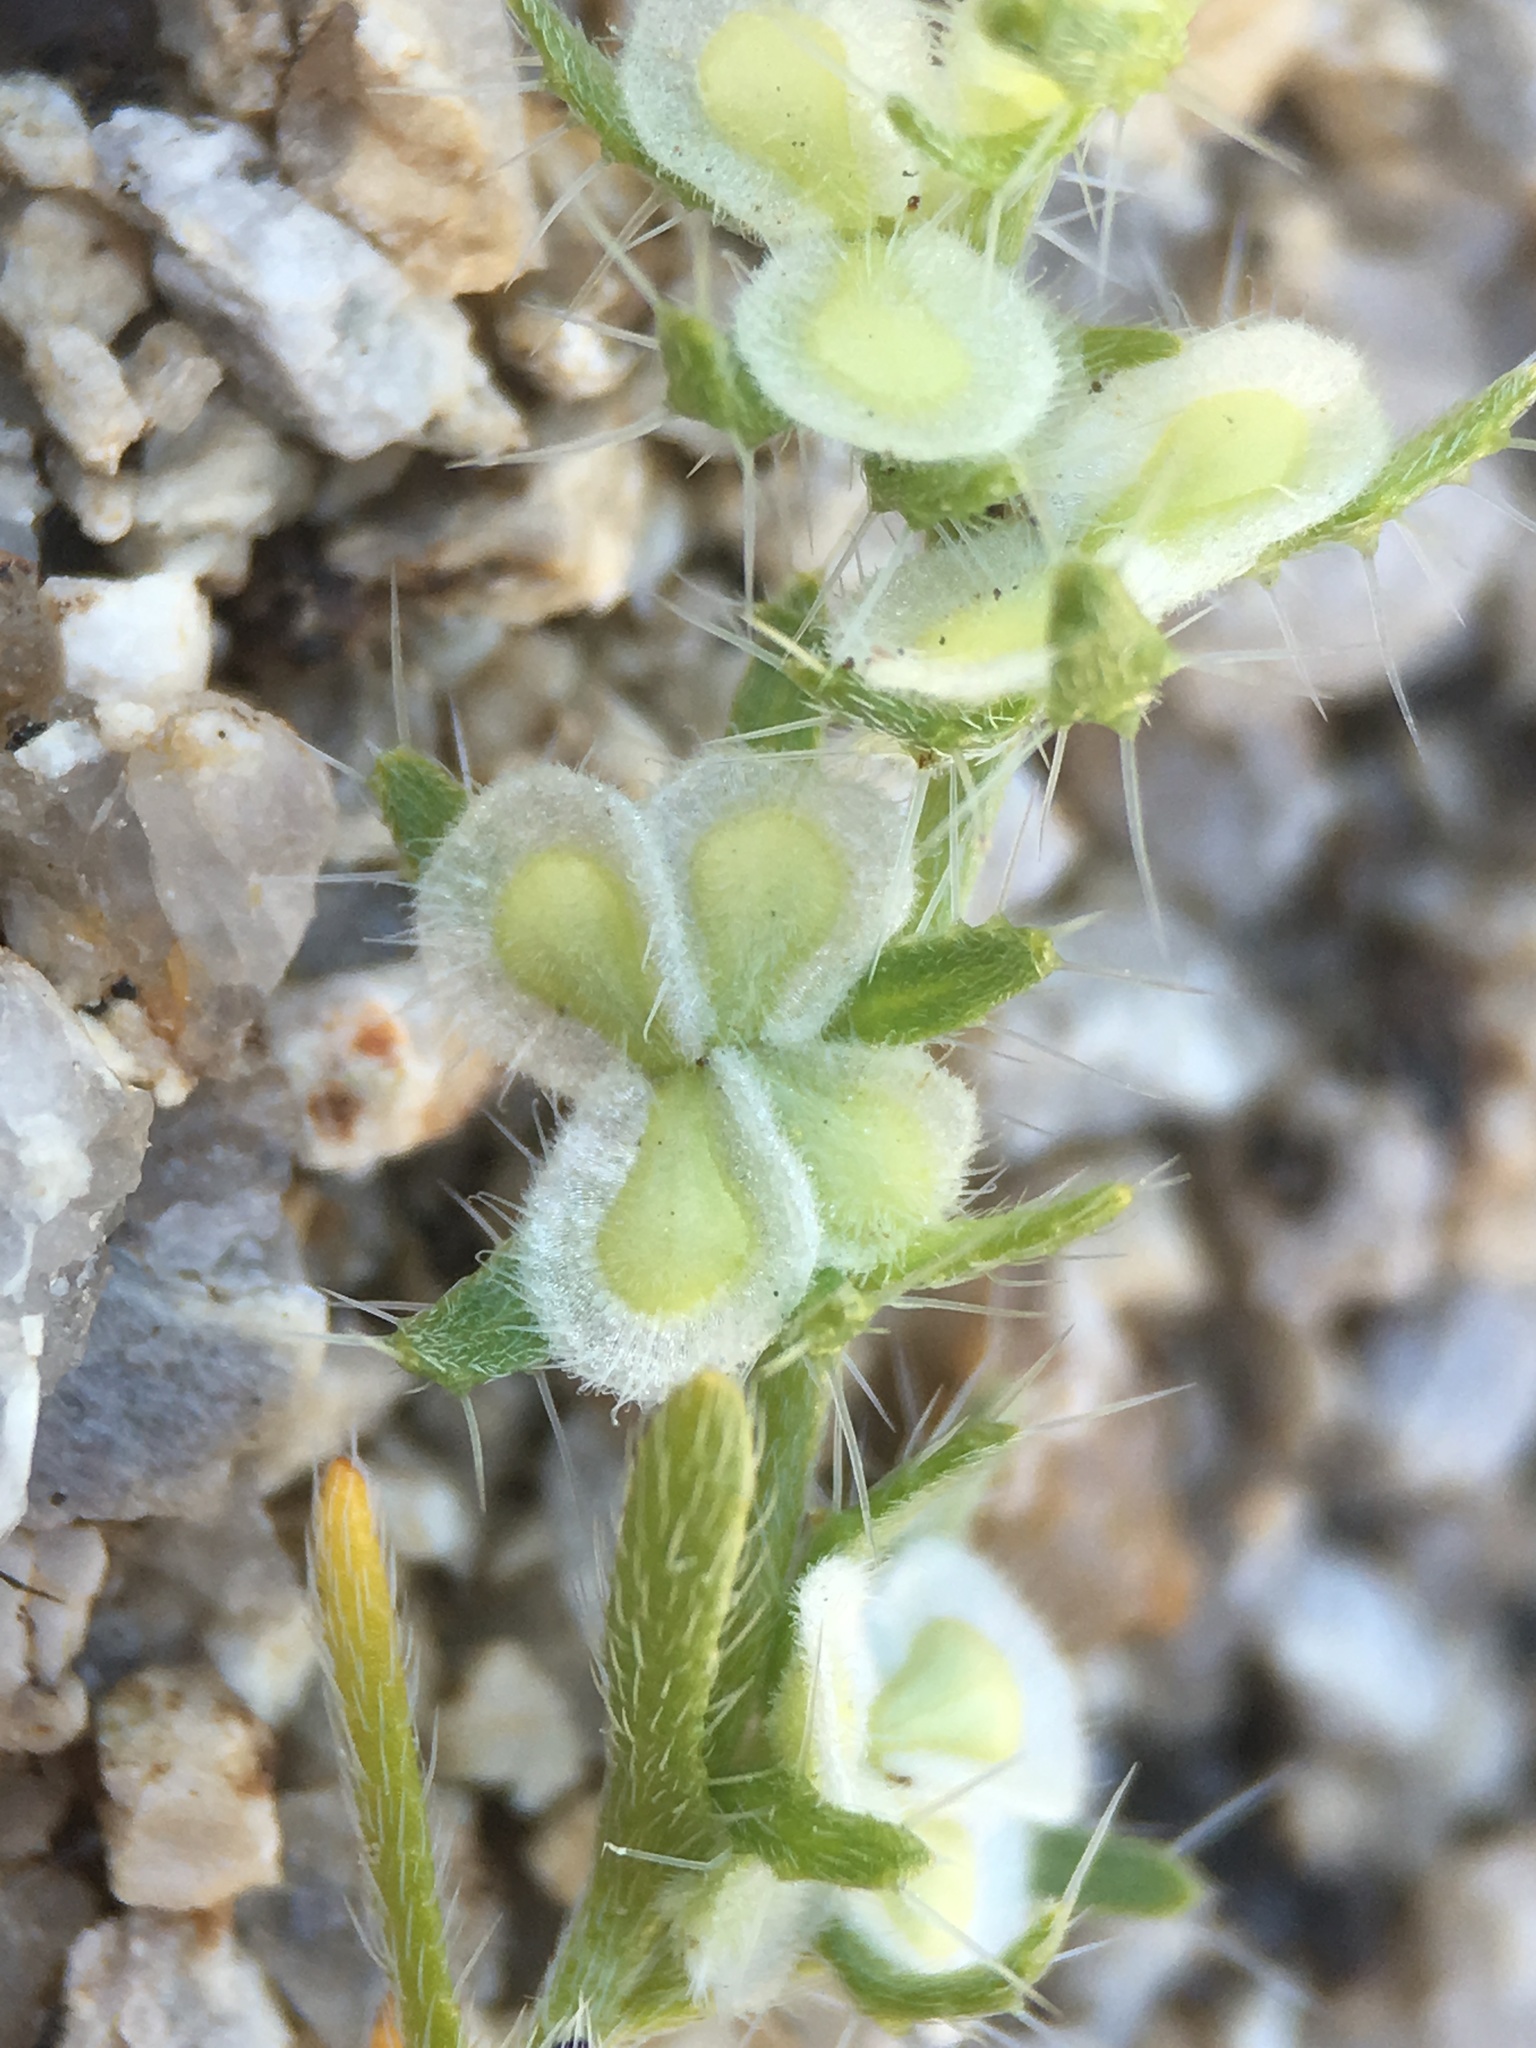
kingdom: Plantae
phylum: Tracheophyta
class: Magnoliopsida
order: Boraginales
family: Boraginaceae
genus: Pectocarya
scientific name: Pectocarya setosa
